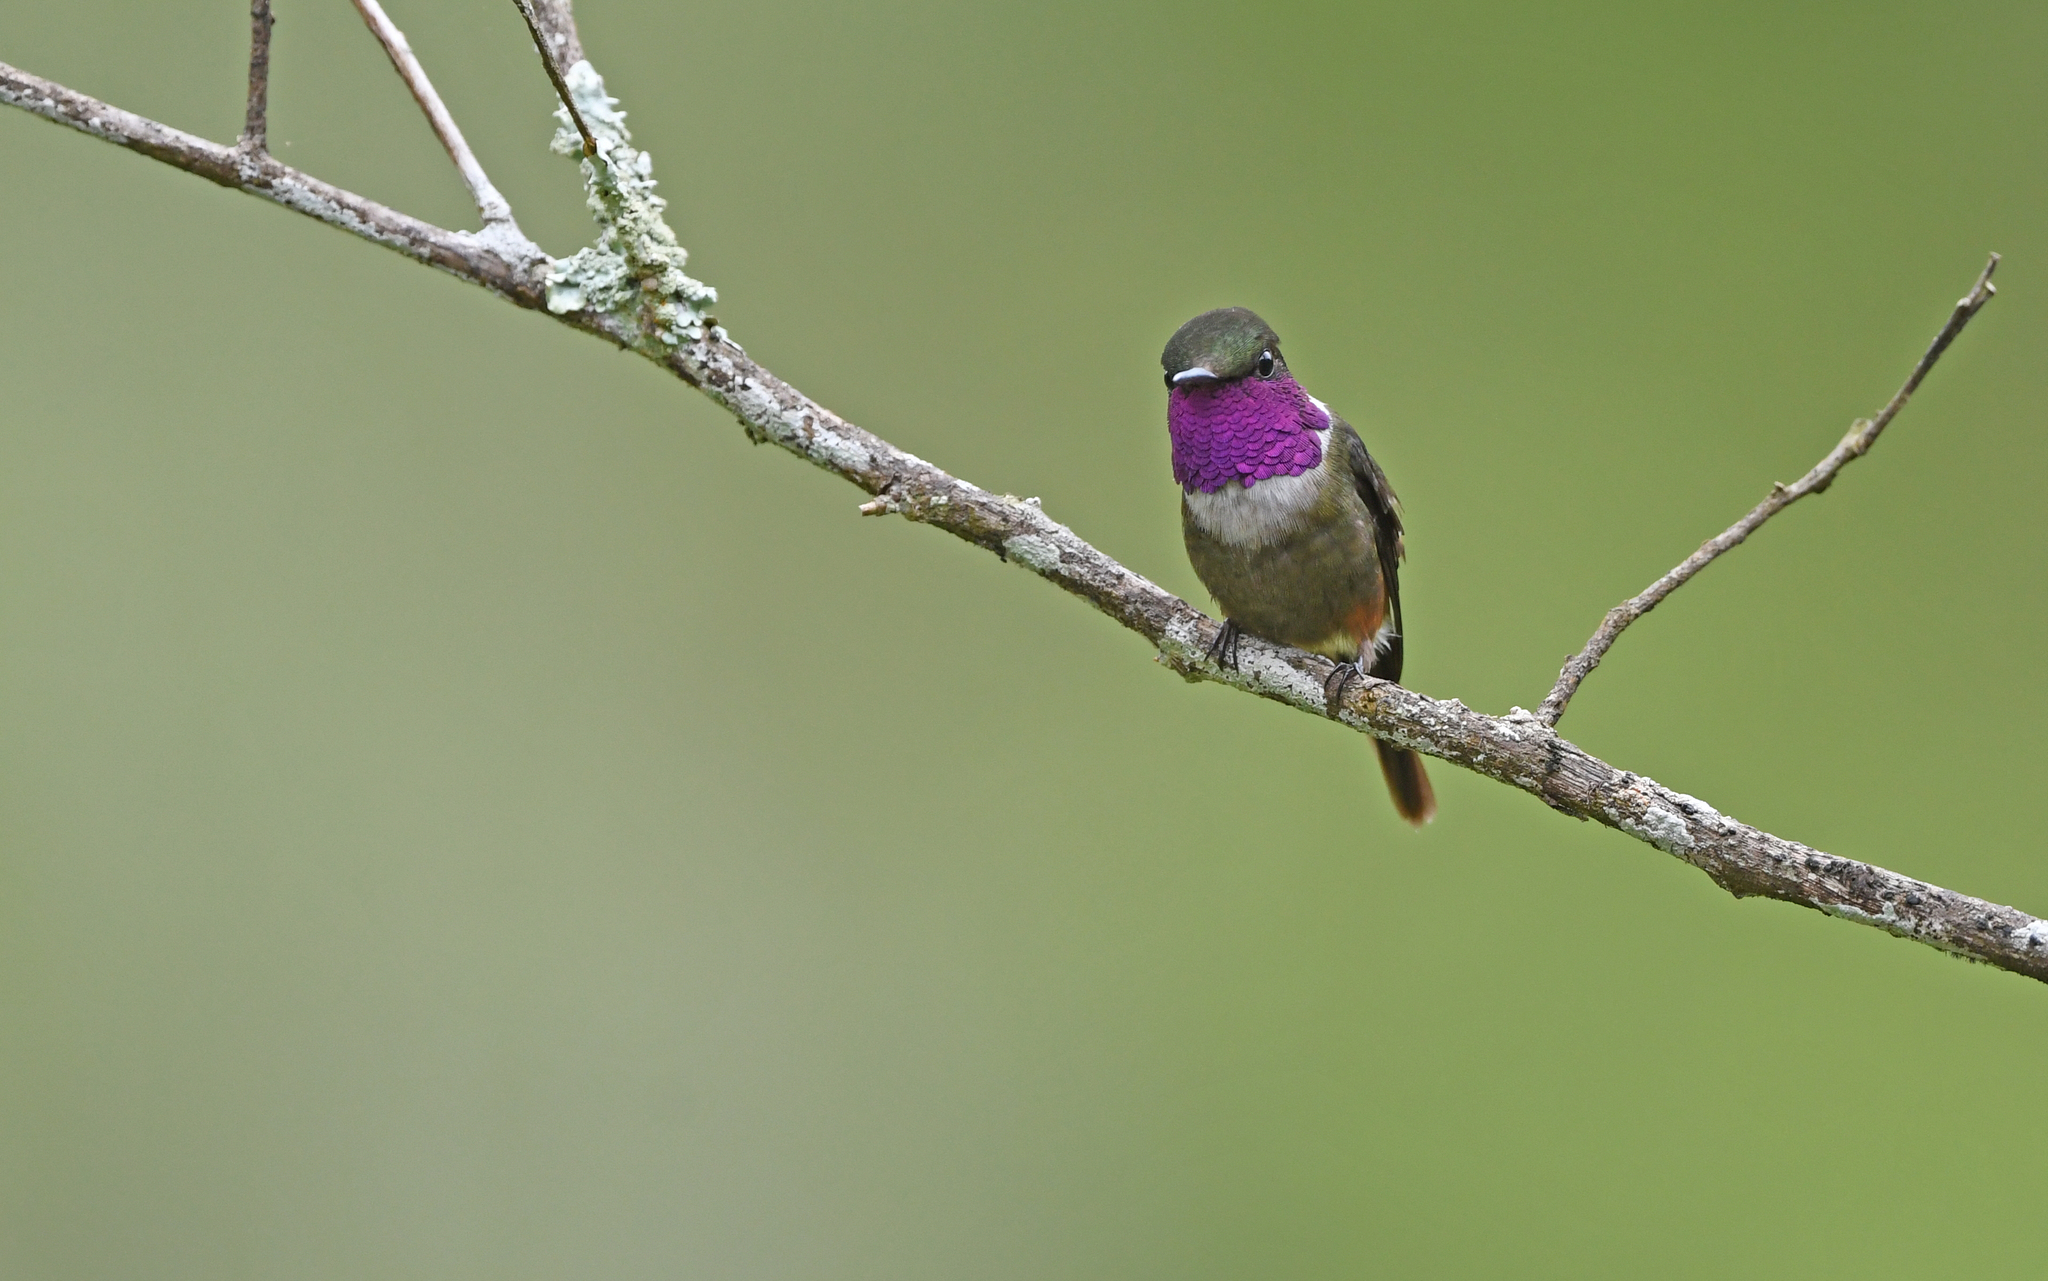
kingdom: Animalia
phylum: Chordata
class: Aves
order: Apodiformes
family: Trochilidae
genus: Calliphlox
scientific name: Calliphlox mitchellii
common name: Purple-throated woodstar
